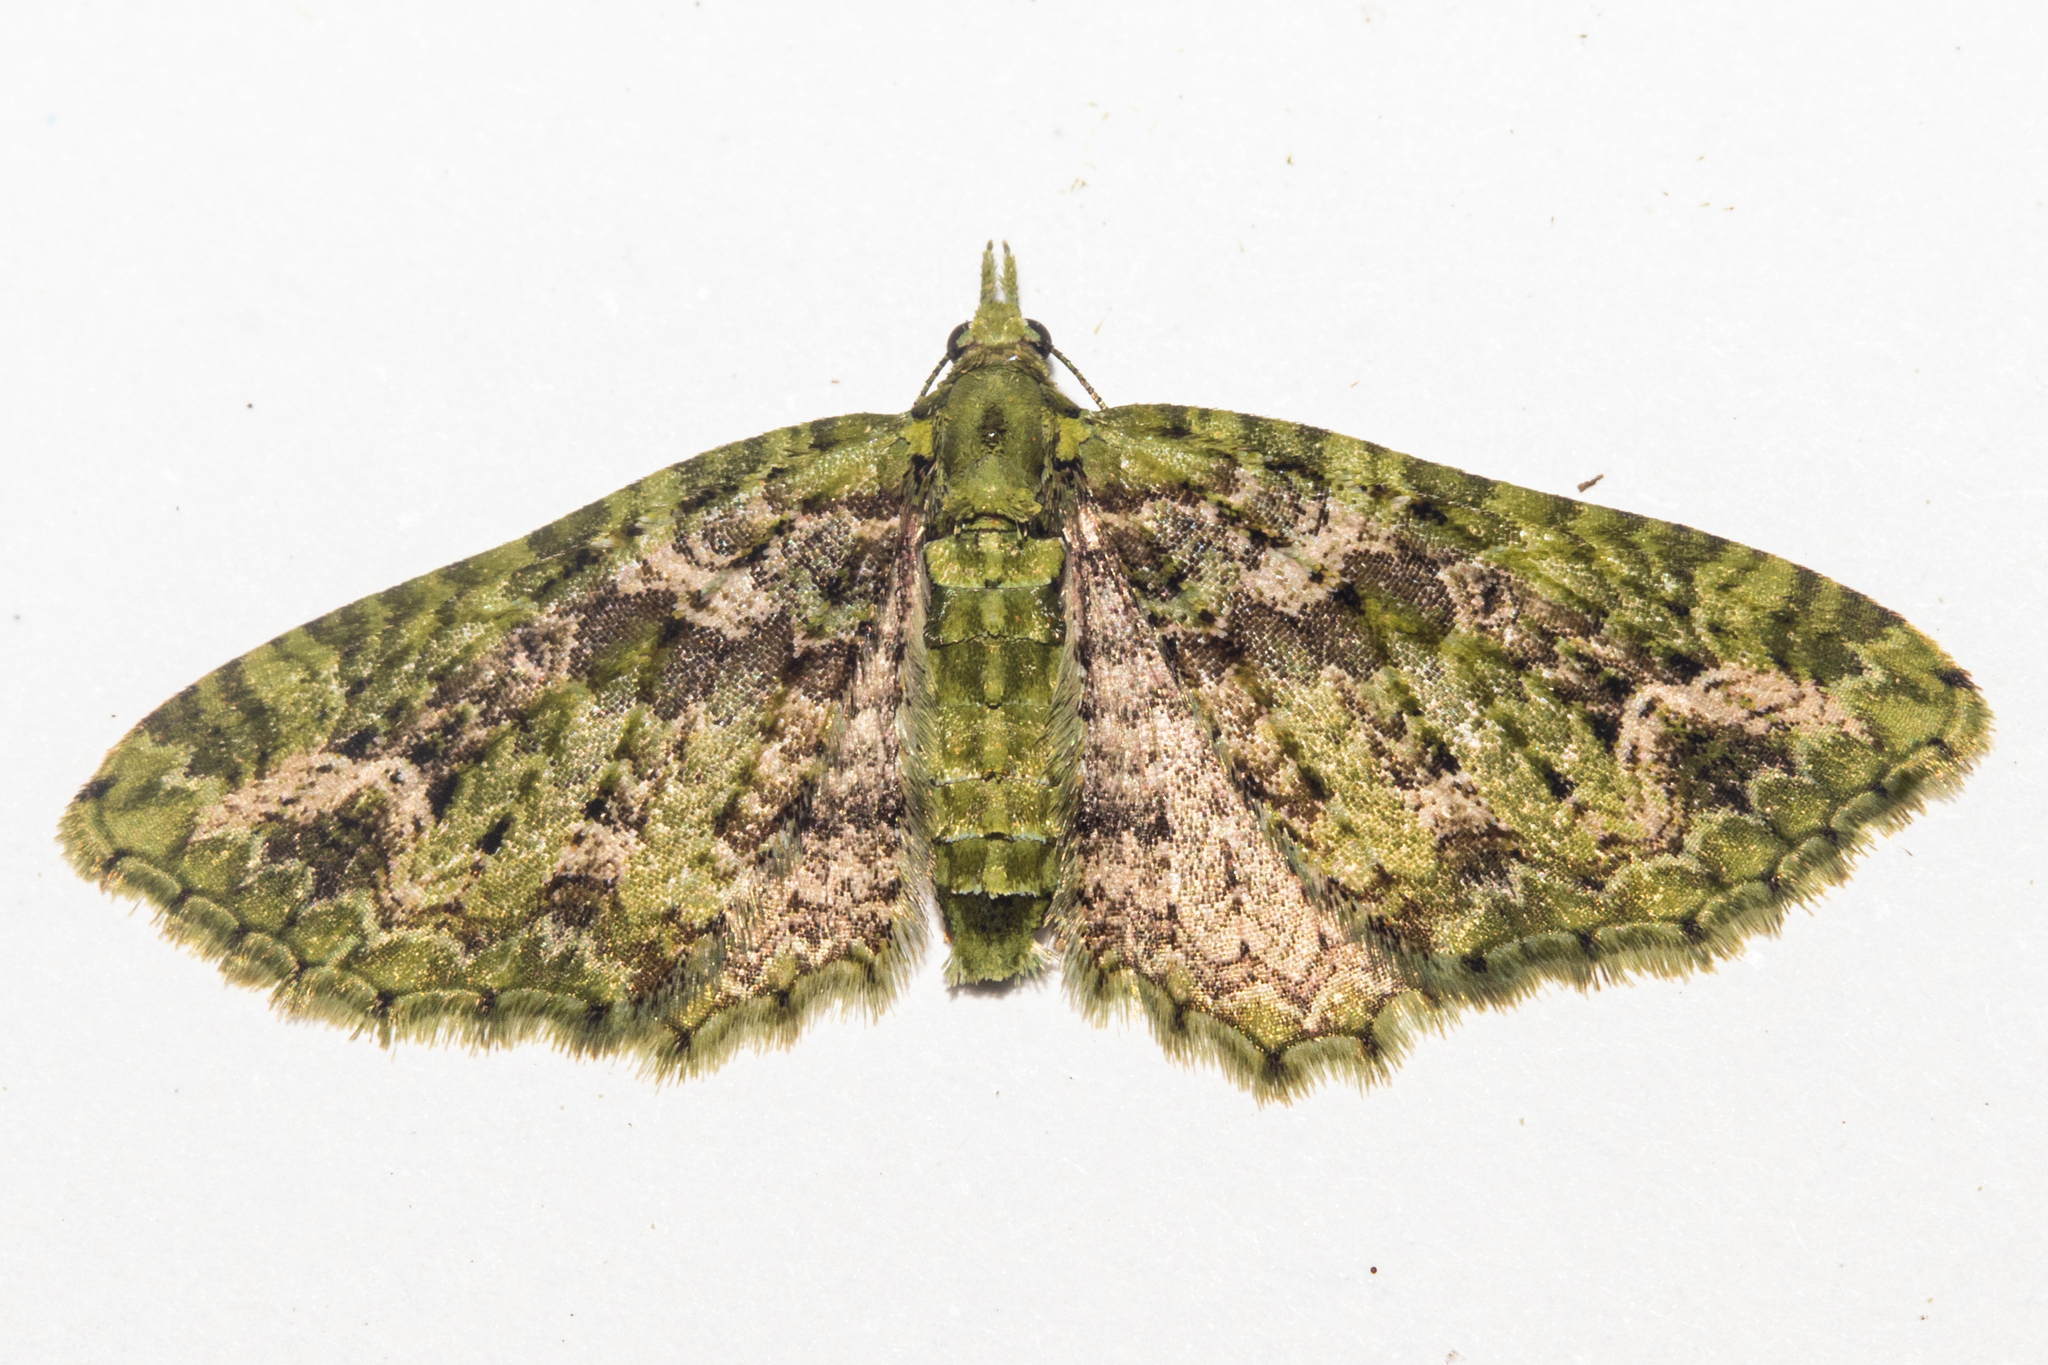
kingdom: Animalia
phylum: Arthropoda
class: Insecta
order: Lepidoptera
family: Geometridae
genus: Pasiphila
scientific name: Pasiphila muscosata
